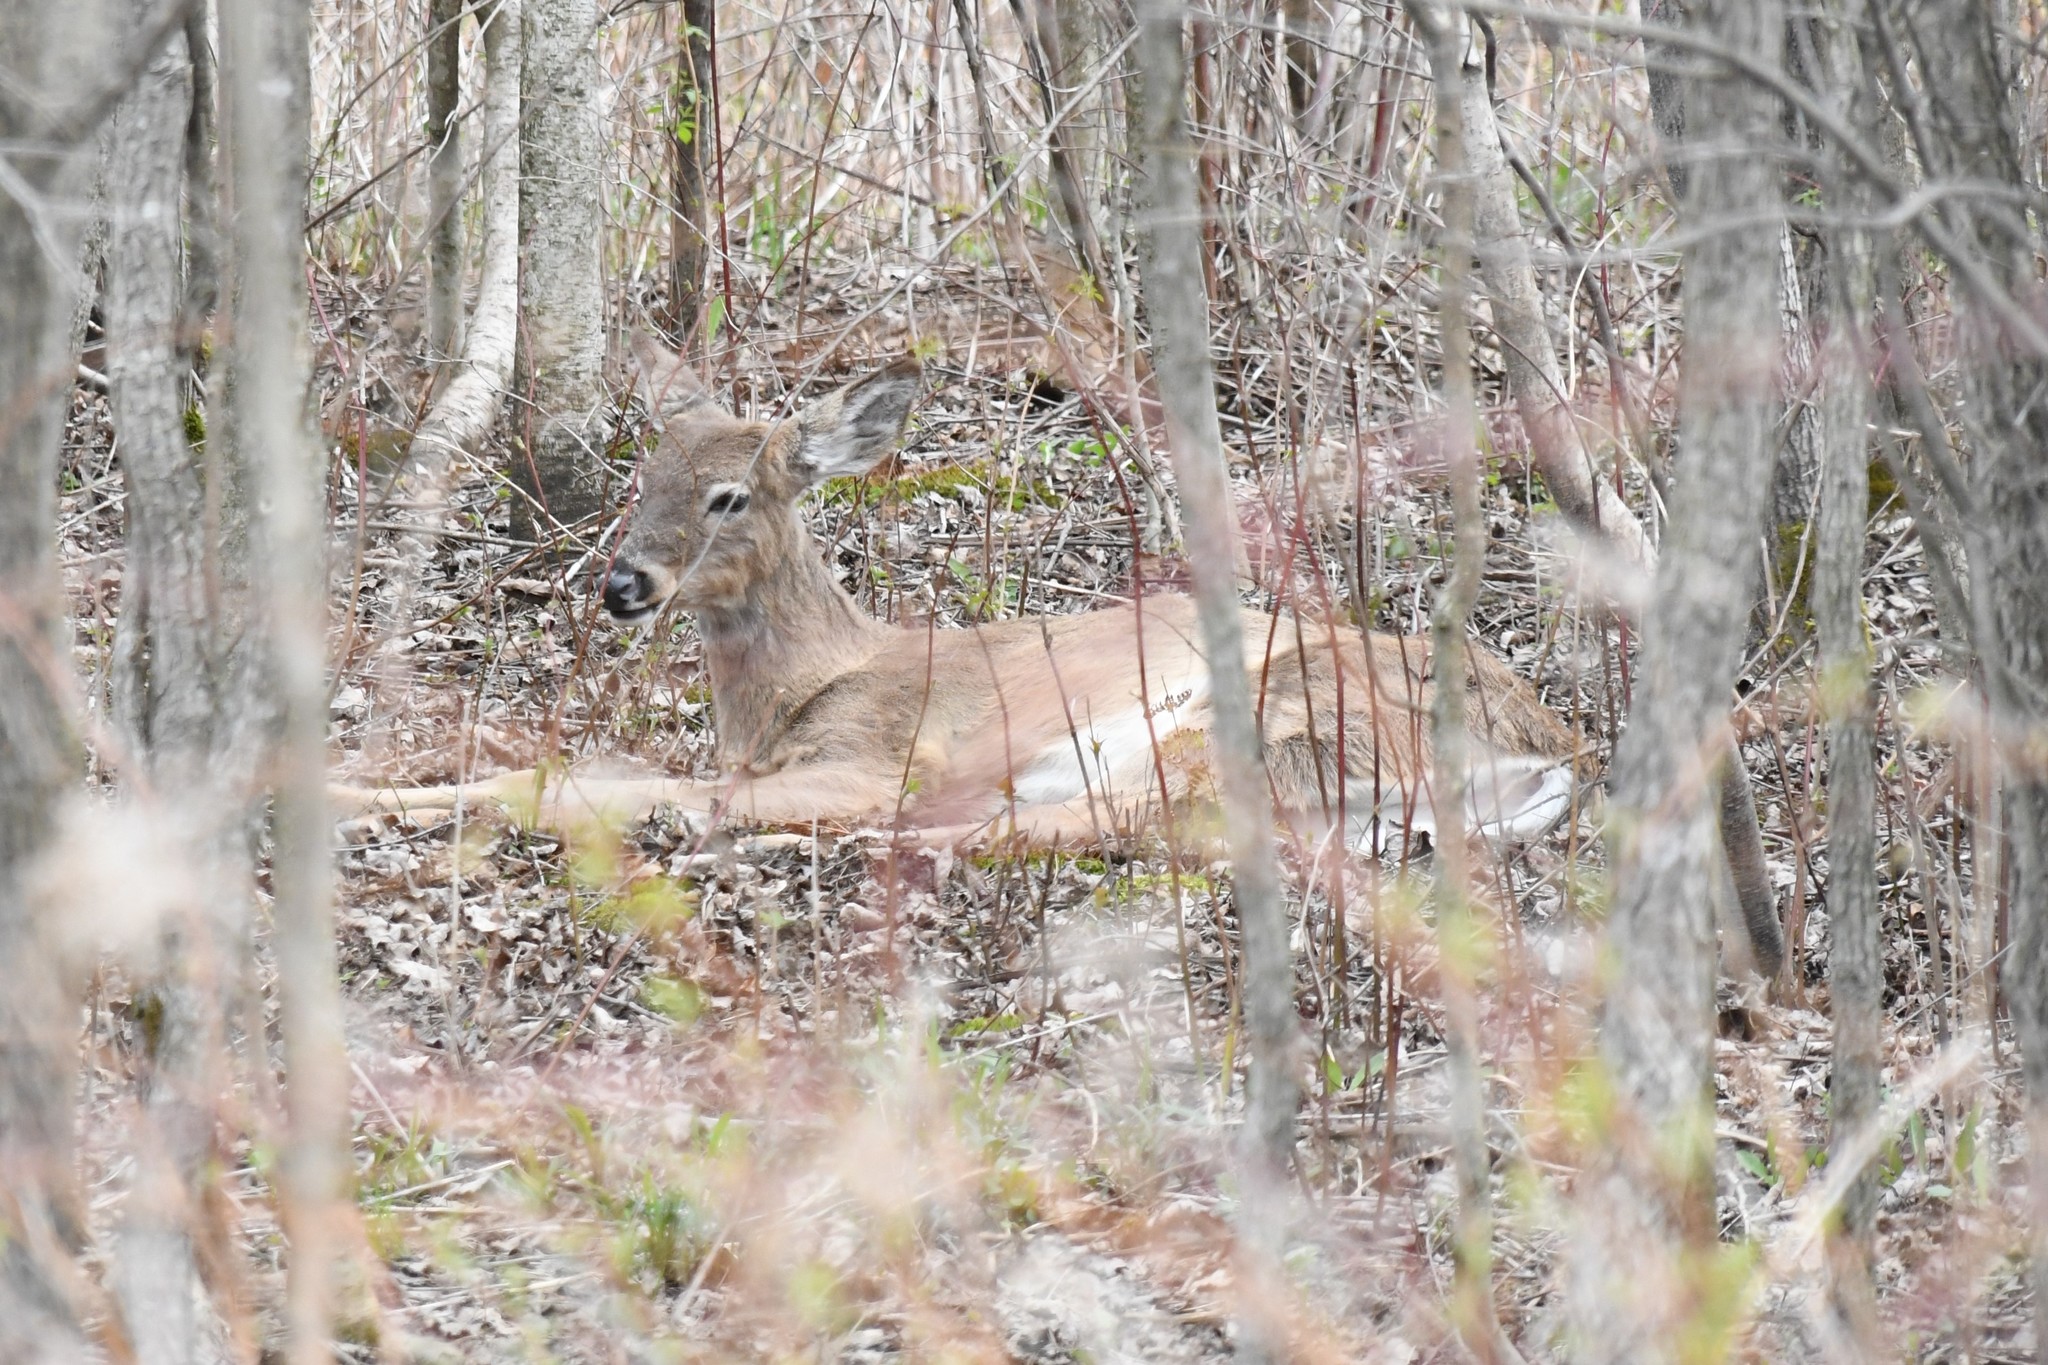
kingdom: Animalia
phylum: Chordata
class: Mammalia
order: Artiodactyla
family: Cervidae
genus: Odocoileus
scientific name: Odocoileus virginianus
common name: White-tailed deer
